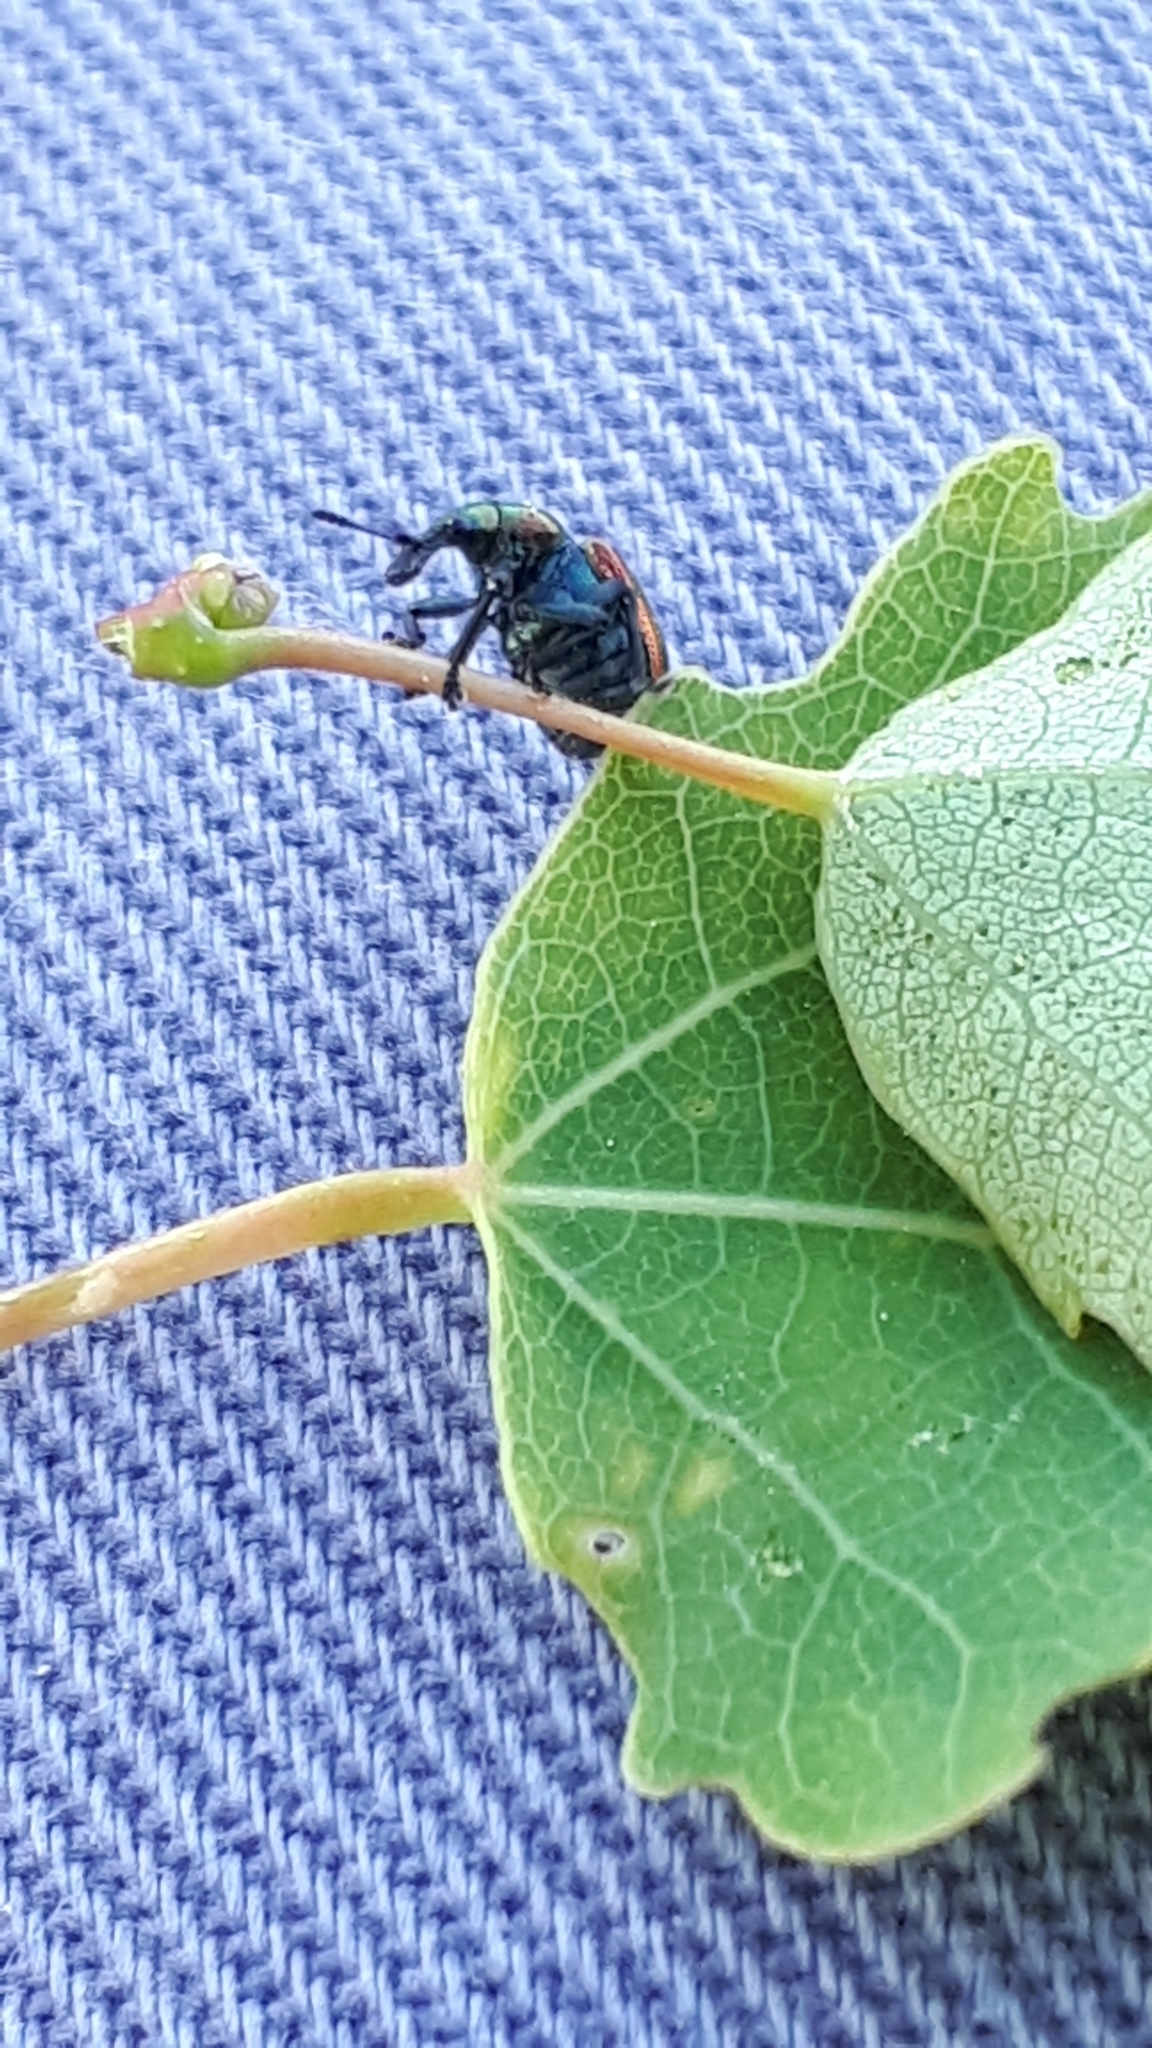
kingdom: Animalia
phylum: Arthropoda
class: Insecta
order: Coleoptera
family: Attelabidae
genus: Byctiscus
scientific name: Byctiscus populi
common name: Leaf-rolling weevil
